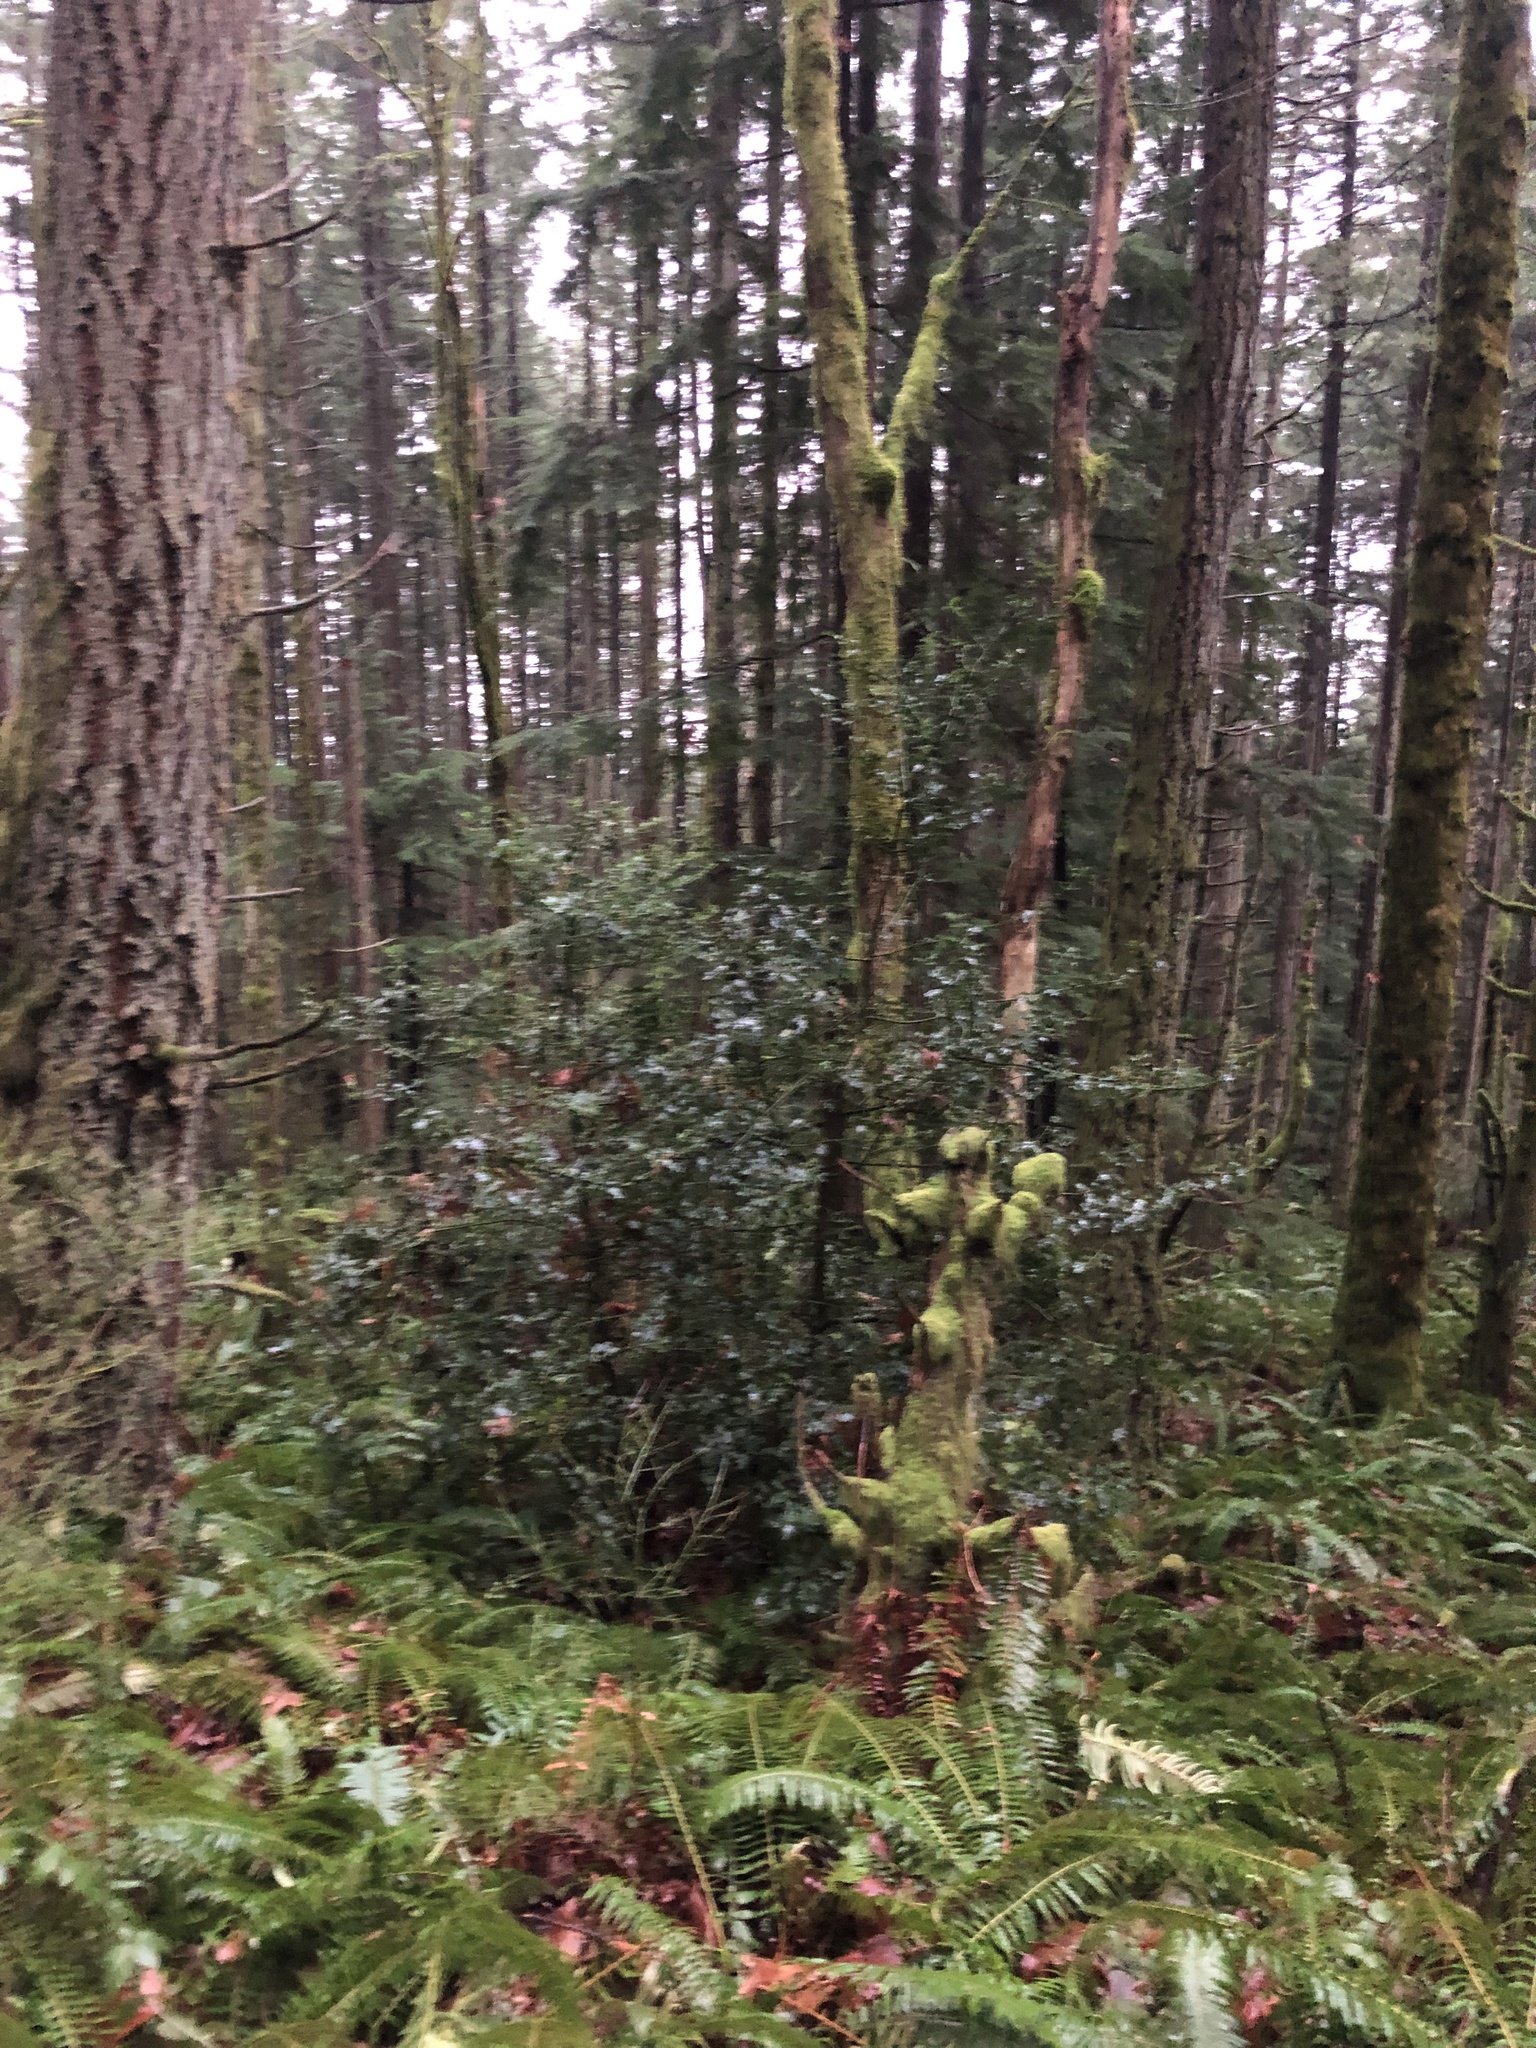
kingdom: Plantae
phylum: Tracheophyta
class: Magnoliopsida
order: Aquifoliales
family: Aquifoliaceae
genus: Ilex
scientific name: Ilex aquifolium
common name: English holly
